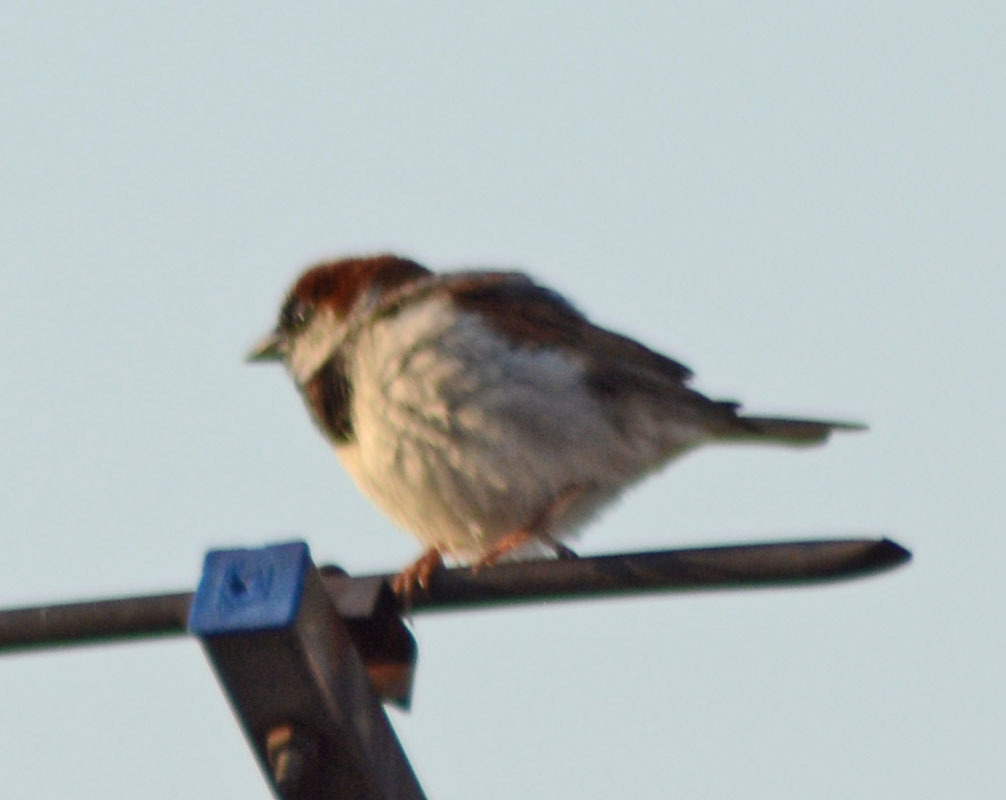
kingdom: Animalia
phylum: Chordata
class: Aves
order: Passeriformes
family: Passeridae
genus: Passer
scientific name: Passer domesticus
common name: House sparrow
